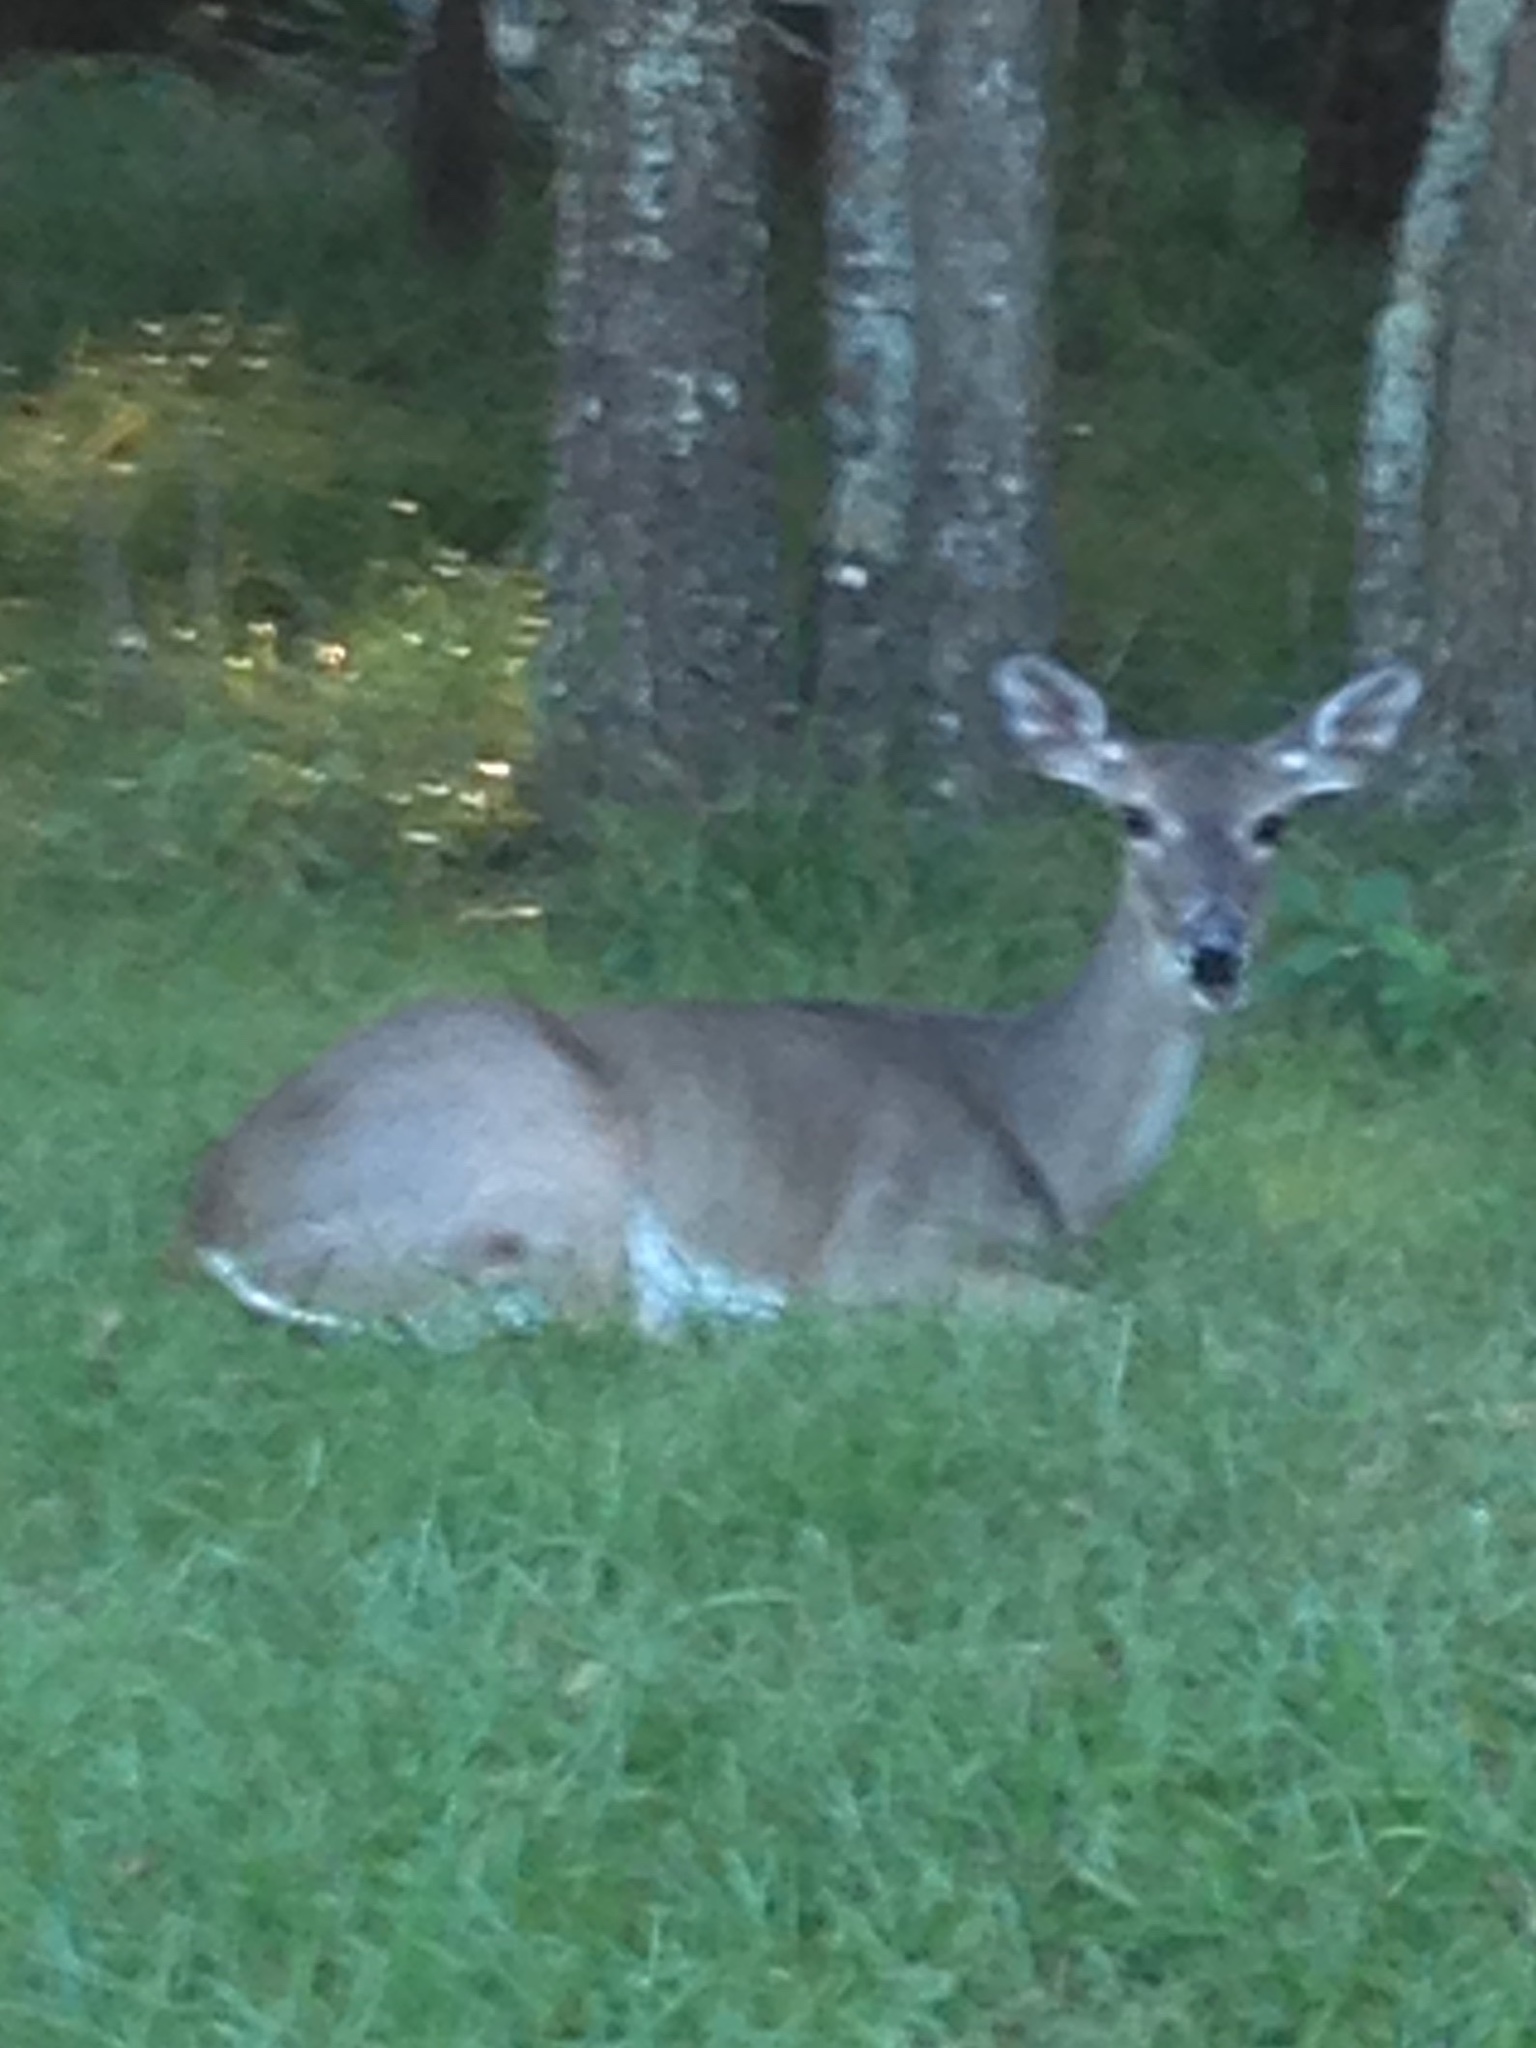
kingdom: Animalia
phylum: Chordata
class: Mammalia
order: Artiodactyla
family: Cervidae
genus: Odocoileus
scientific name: Odocoileus virginianus
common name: White-tailed deer
